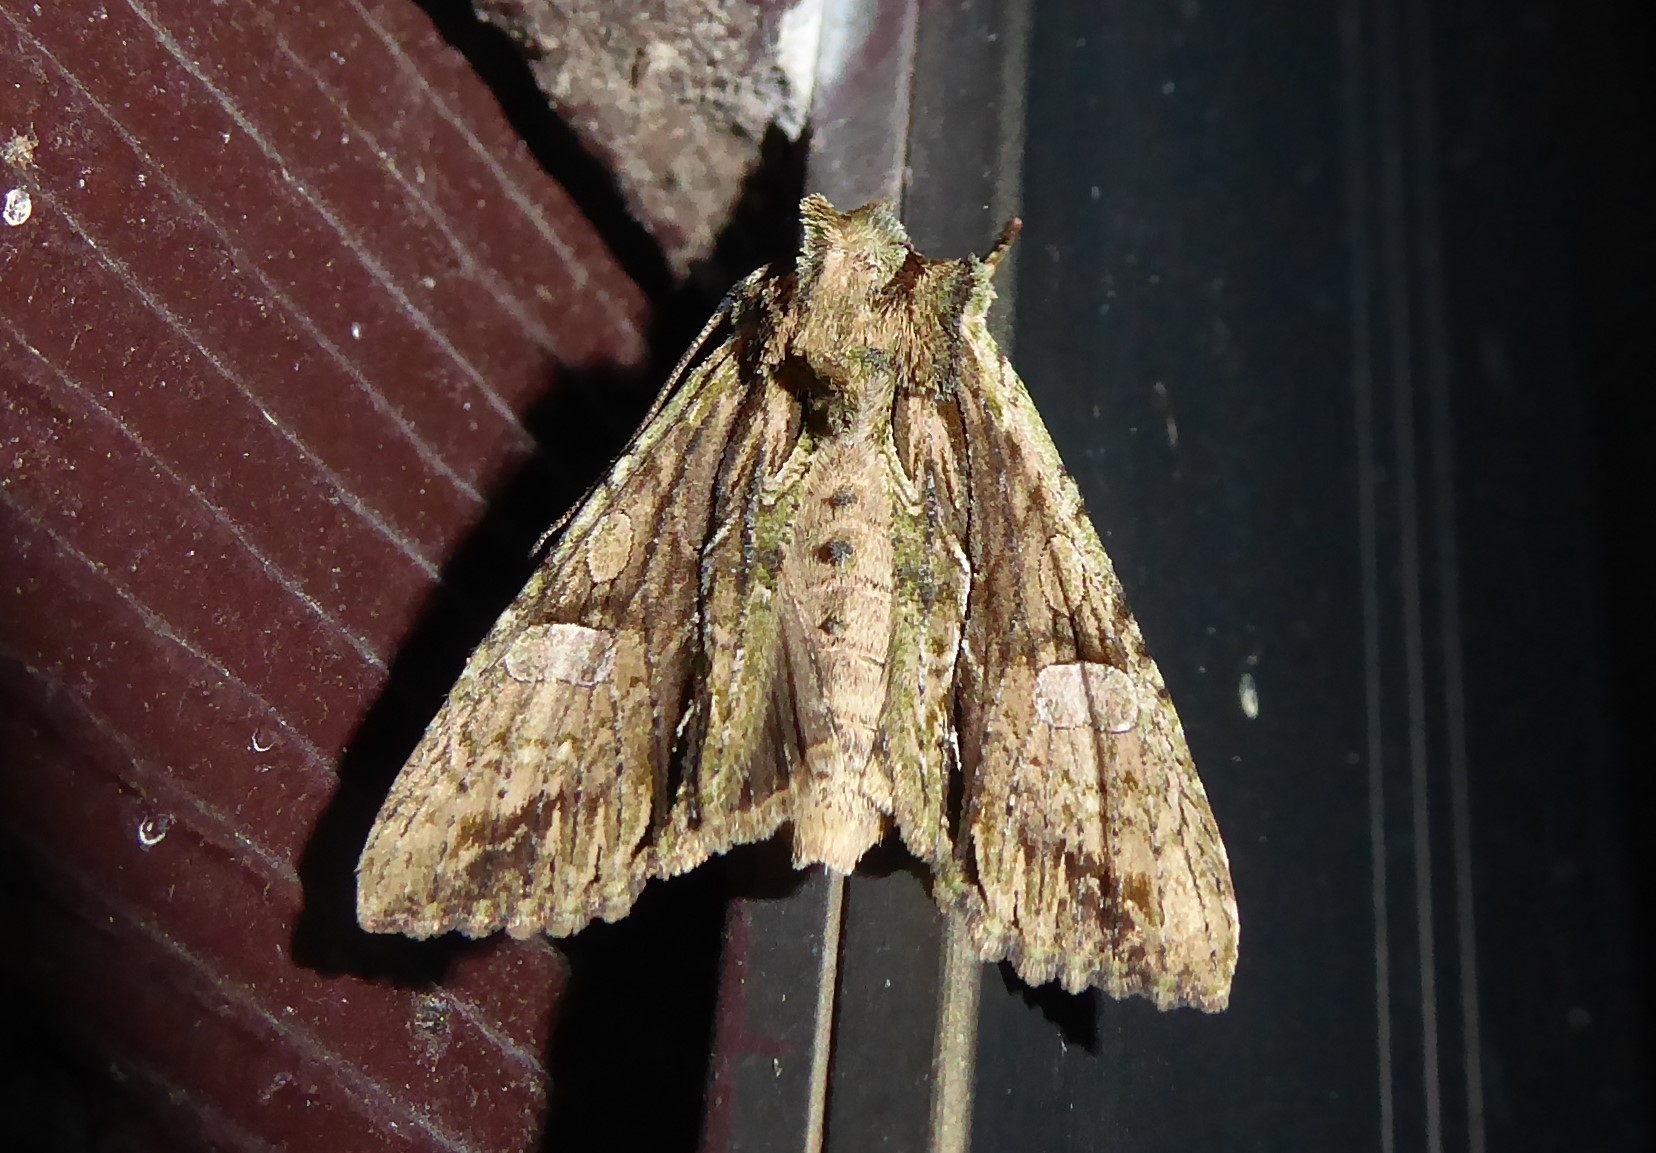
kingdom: Animalia
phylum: Arthropoda
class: Insecta
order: Lepidoptera
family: Noctuidae
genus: Meterana
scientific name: Meterana decorata
